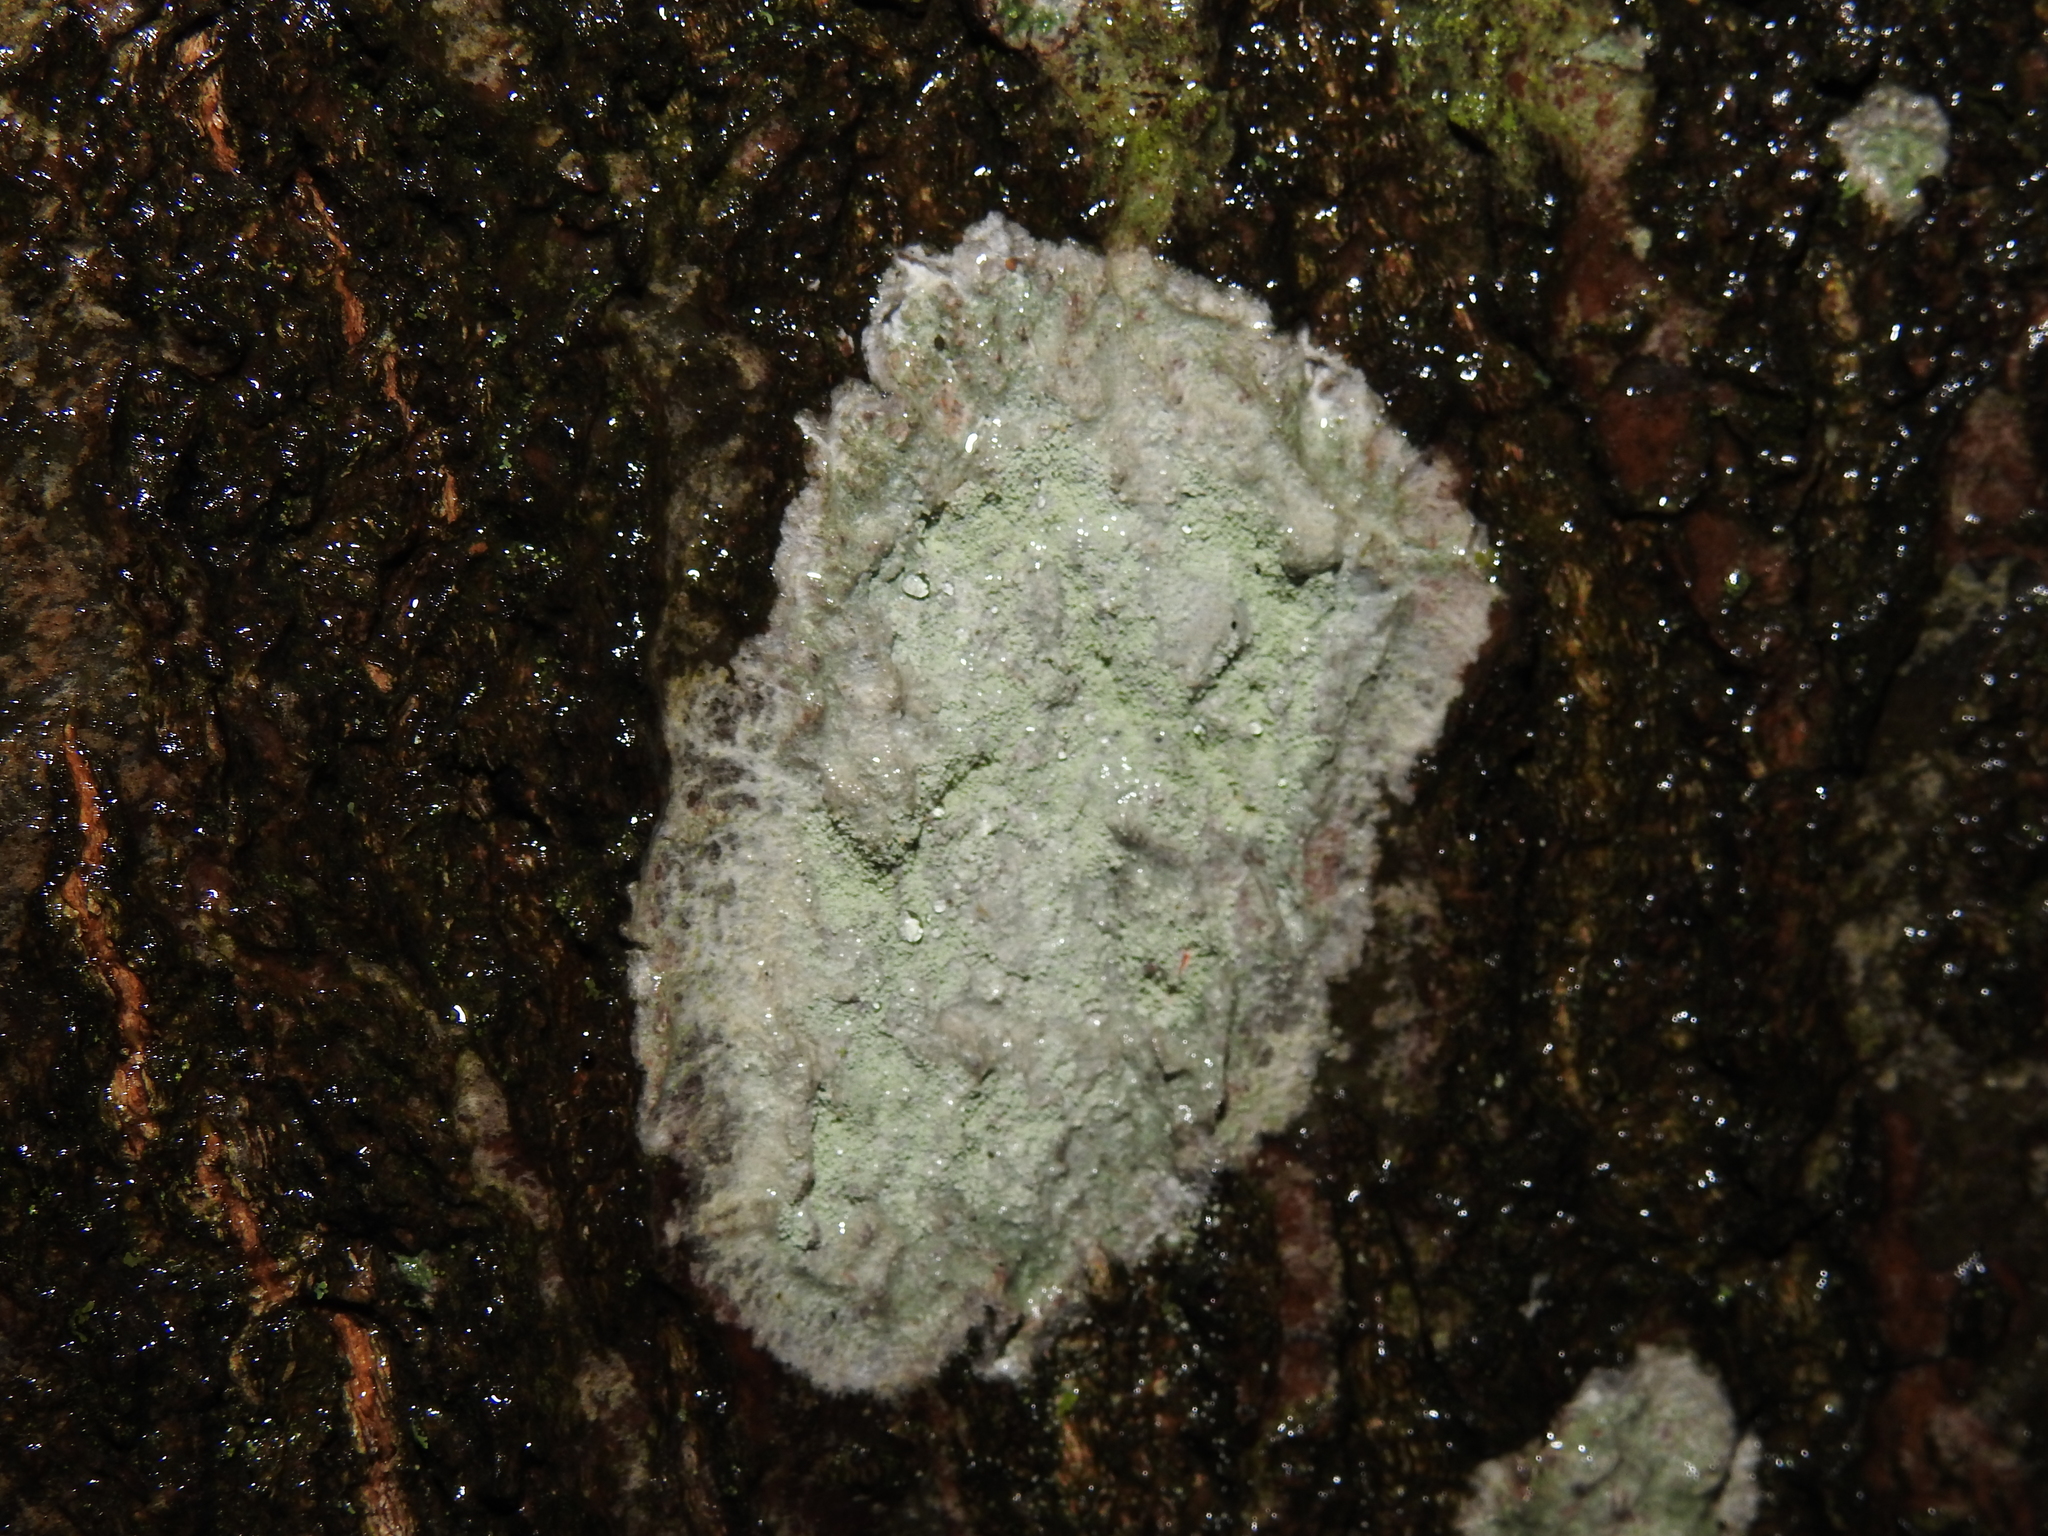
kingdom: Fungi
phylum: Ascomycota
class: Lecanoromycetes
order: Ostropales
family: Phlyctidaceae
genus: Phlyctis
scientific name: Phlyctis argena
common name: Whitewash lichen
